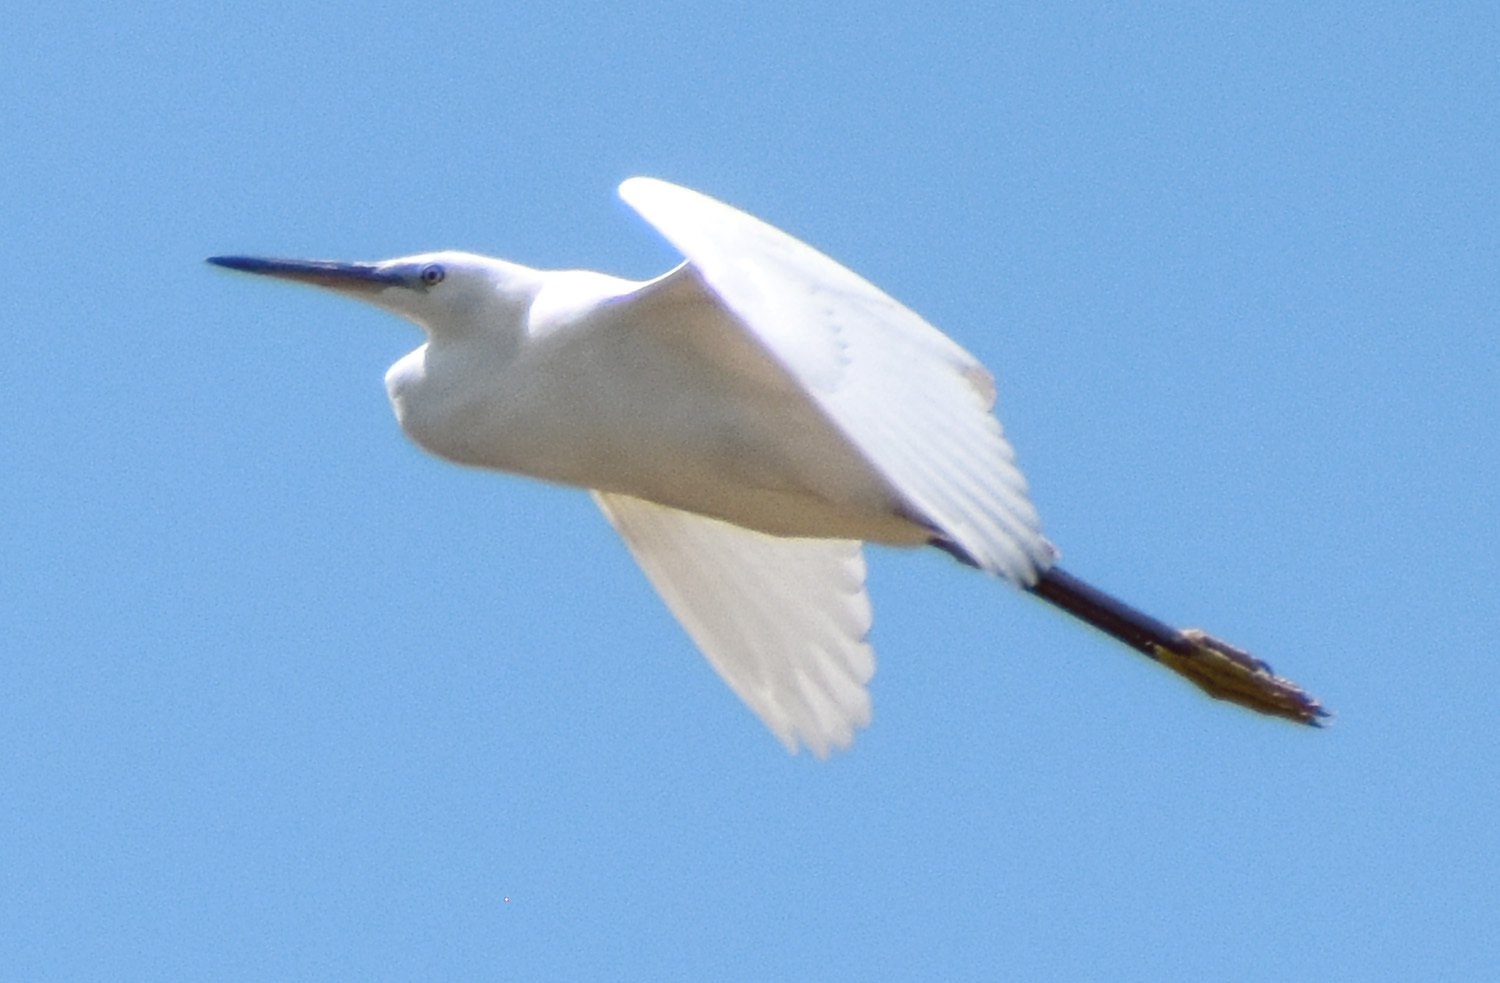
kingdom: Animalia
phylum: Chordata
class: Aves
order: Pelecaniformes
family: Ardeidae
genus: Egretta
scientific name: Egretta garzetta
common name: Little egret
